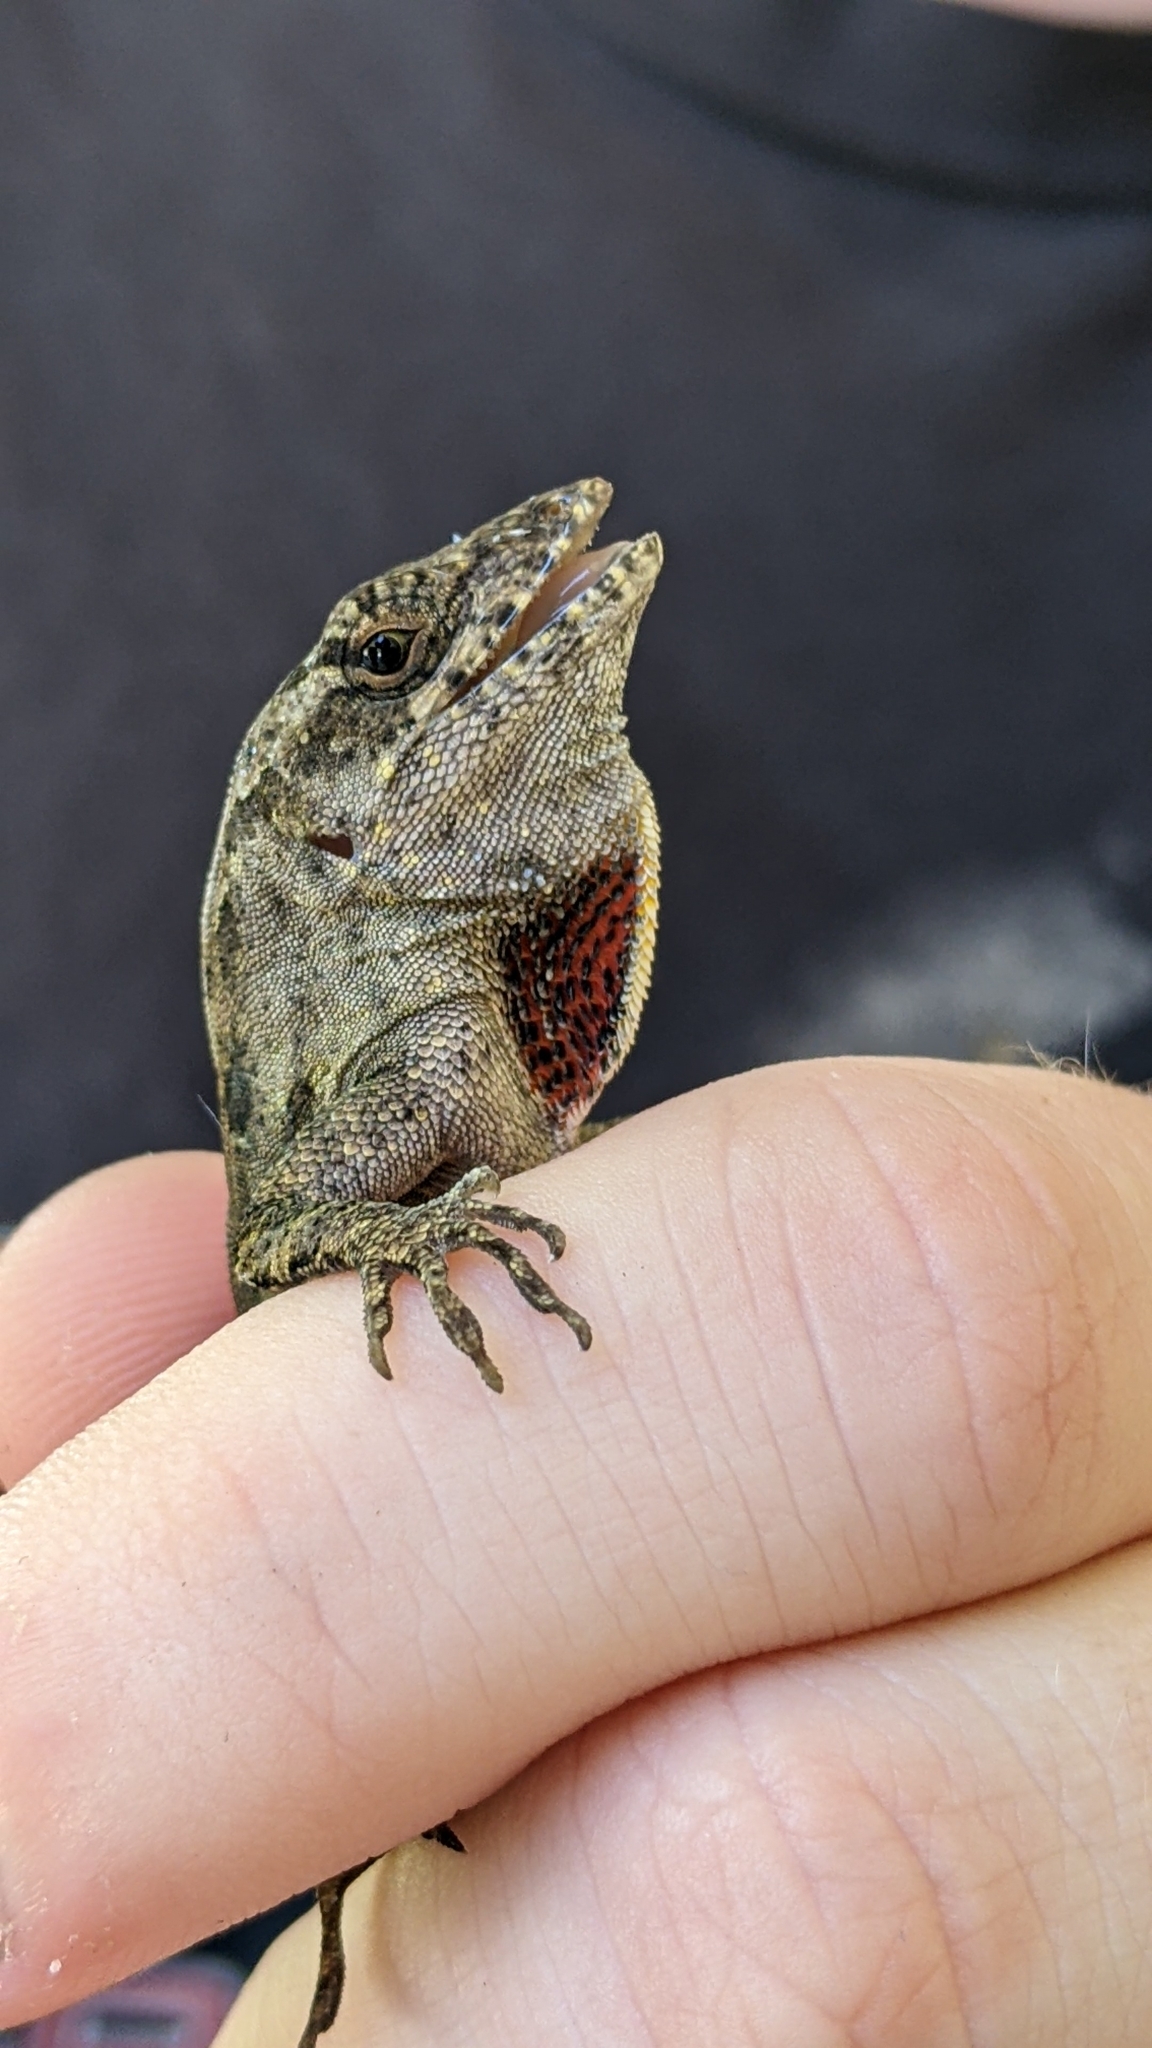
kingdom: Animalia
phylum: Chordata
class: Squamata
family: Dactyloidae
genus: Anolis
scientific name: Anolis sagrei
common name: Brown anole
